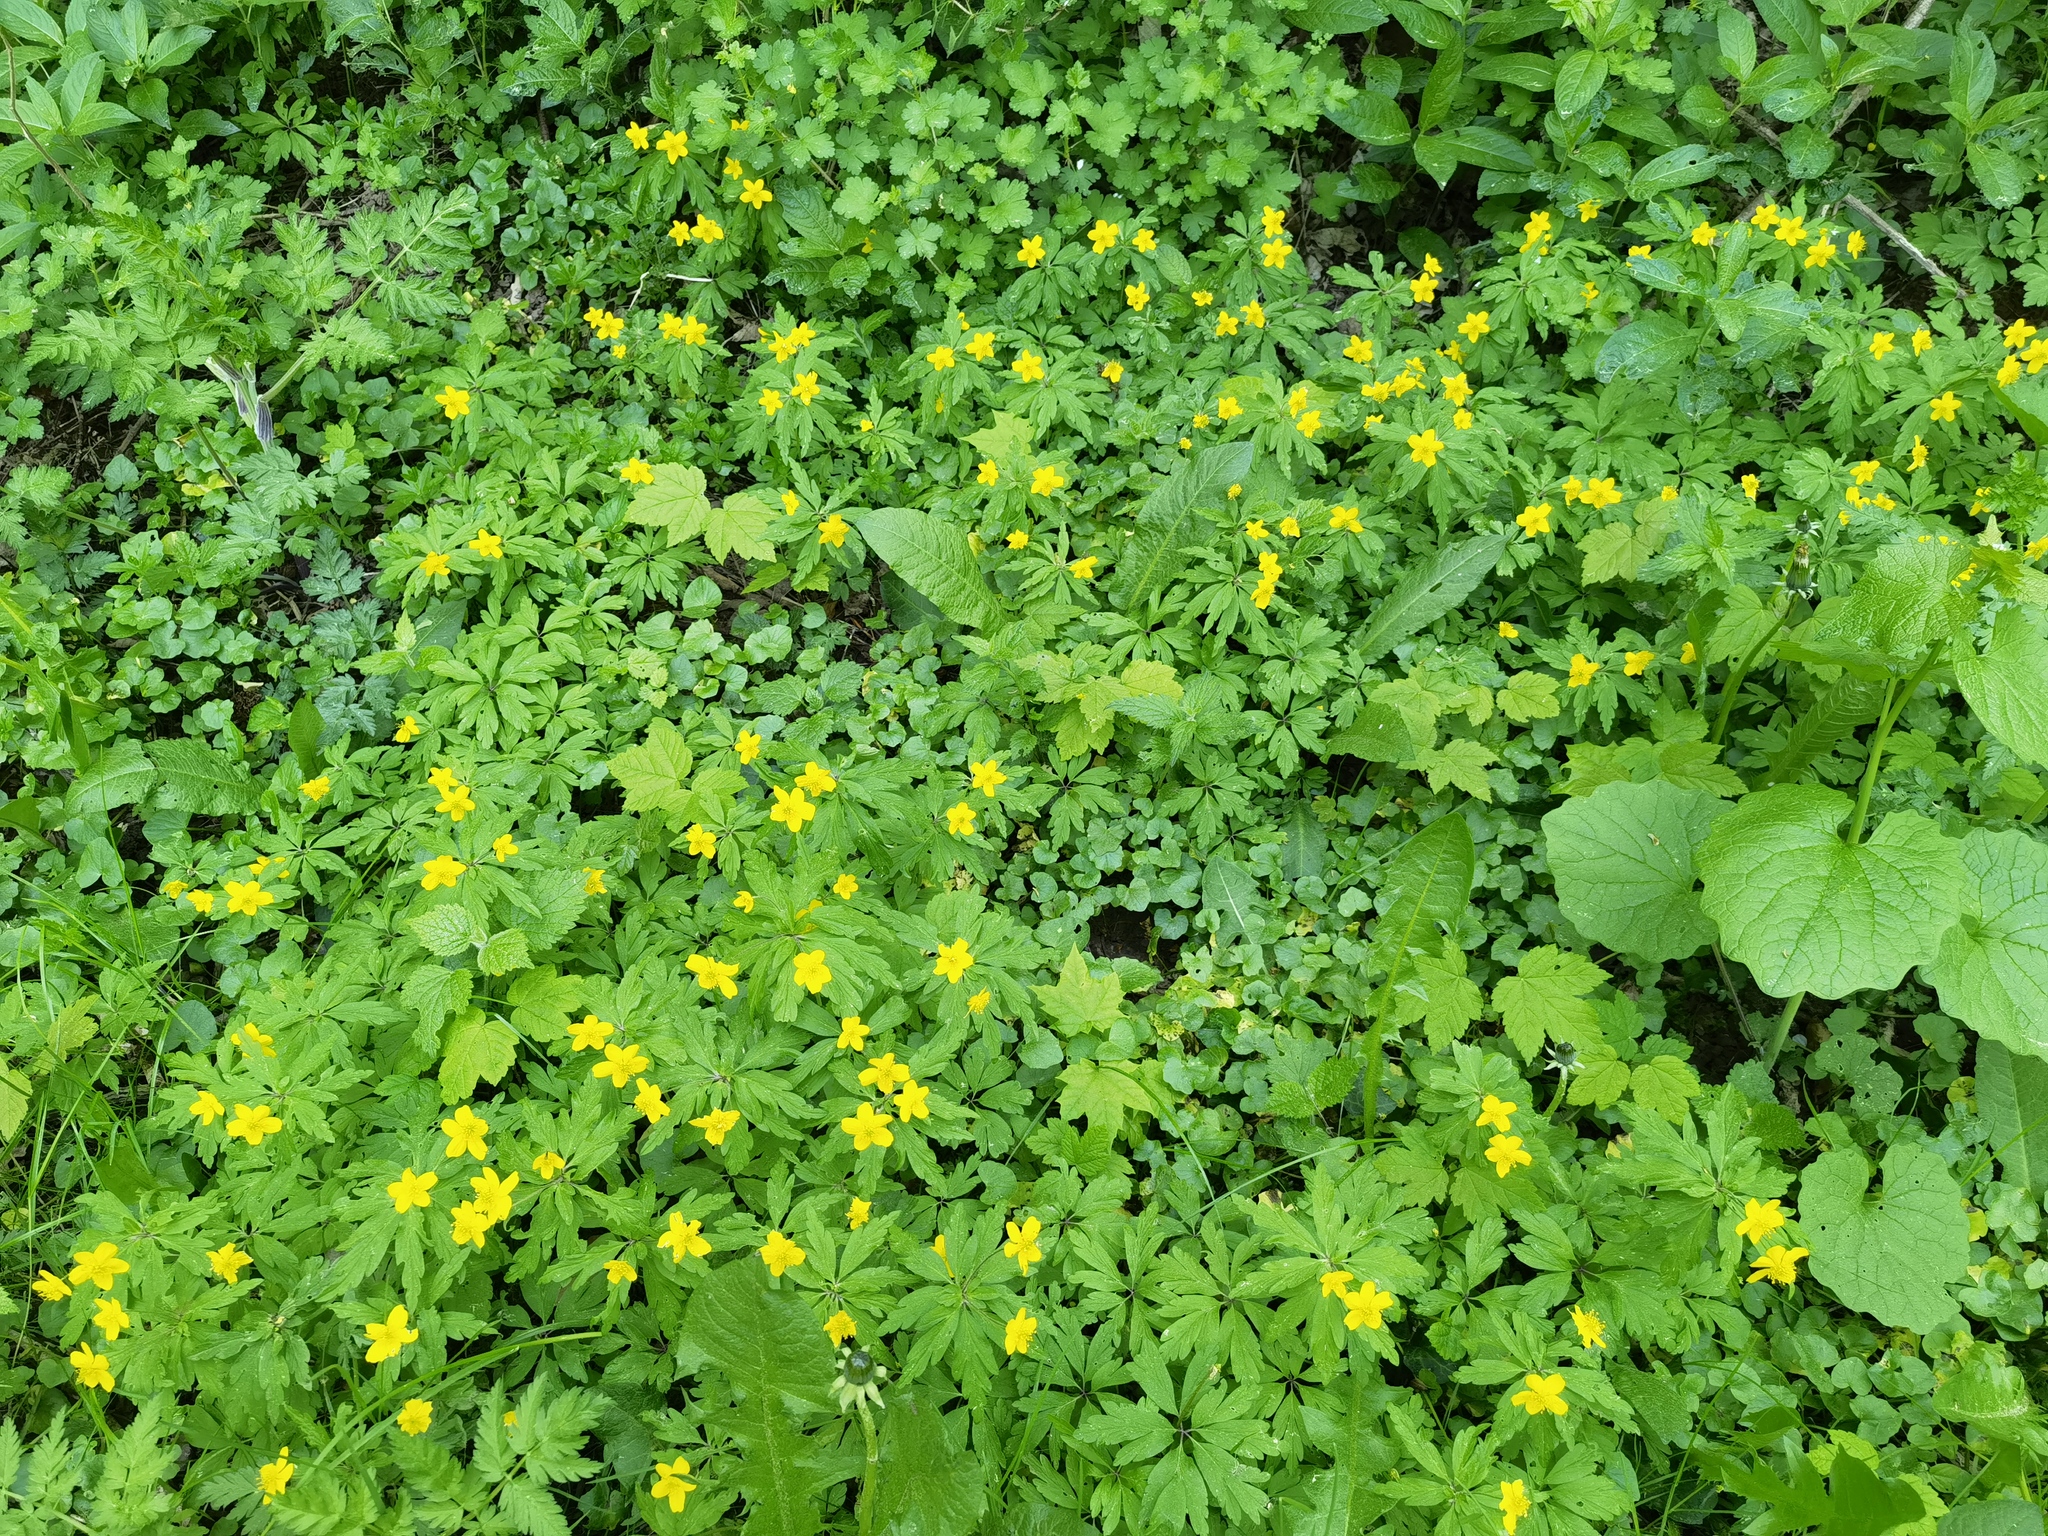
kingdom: Plantae
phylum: Tracheophyta
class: Magnoliopsida
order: Ranunculales
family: Ranunculaceae
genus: Anemone
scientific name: Anemone ranunculoides
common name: Yellow anemone
